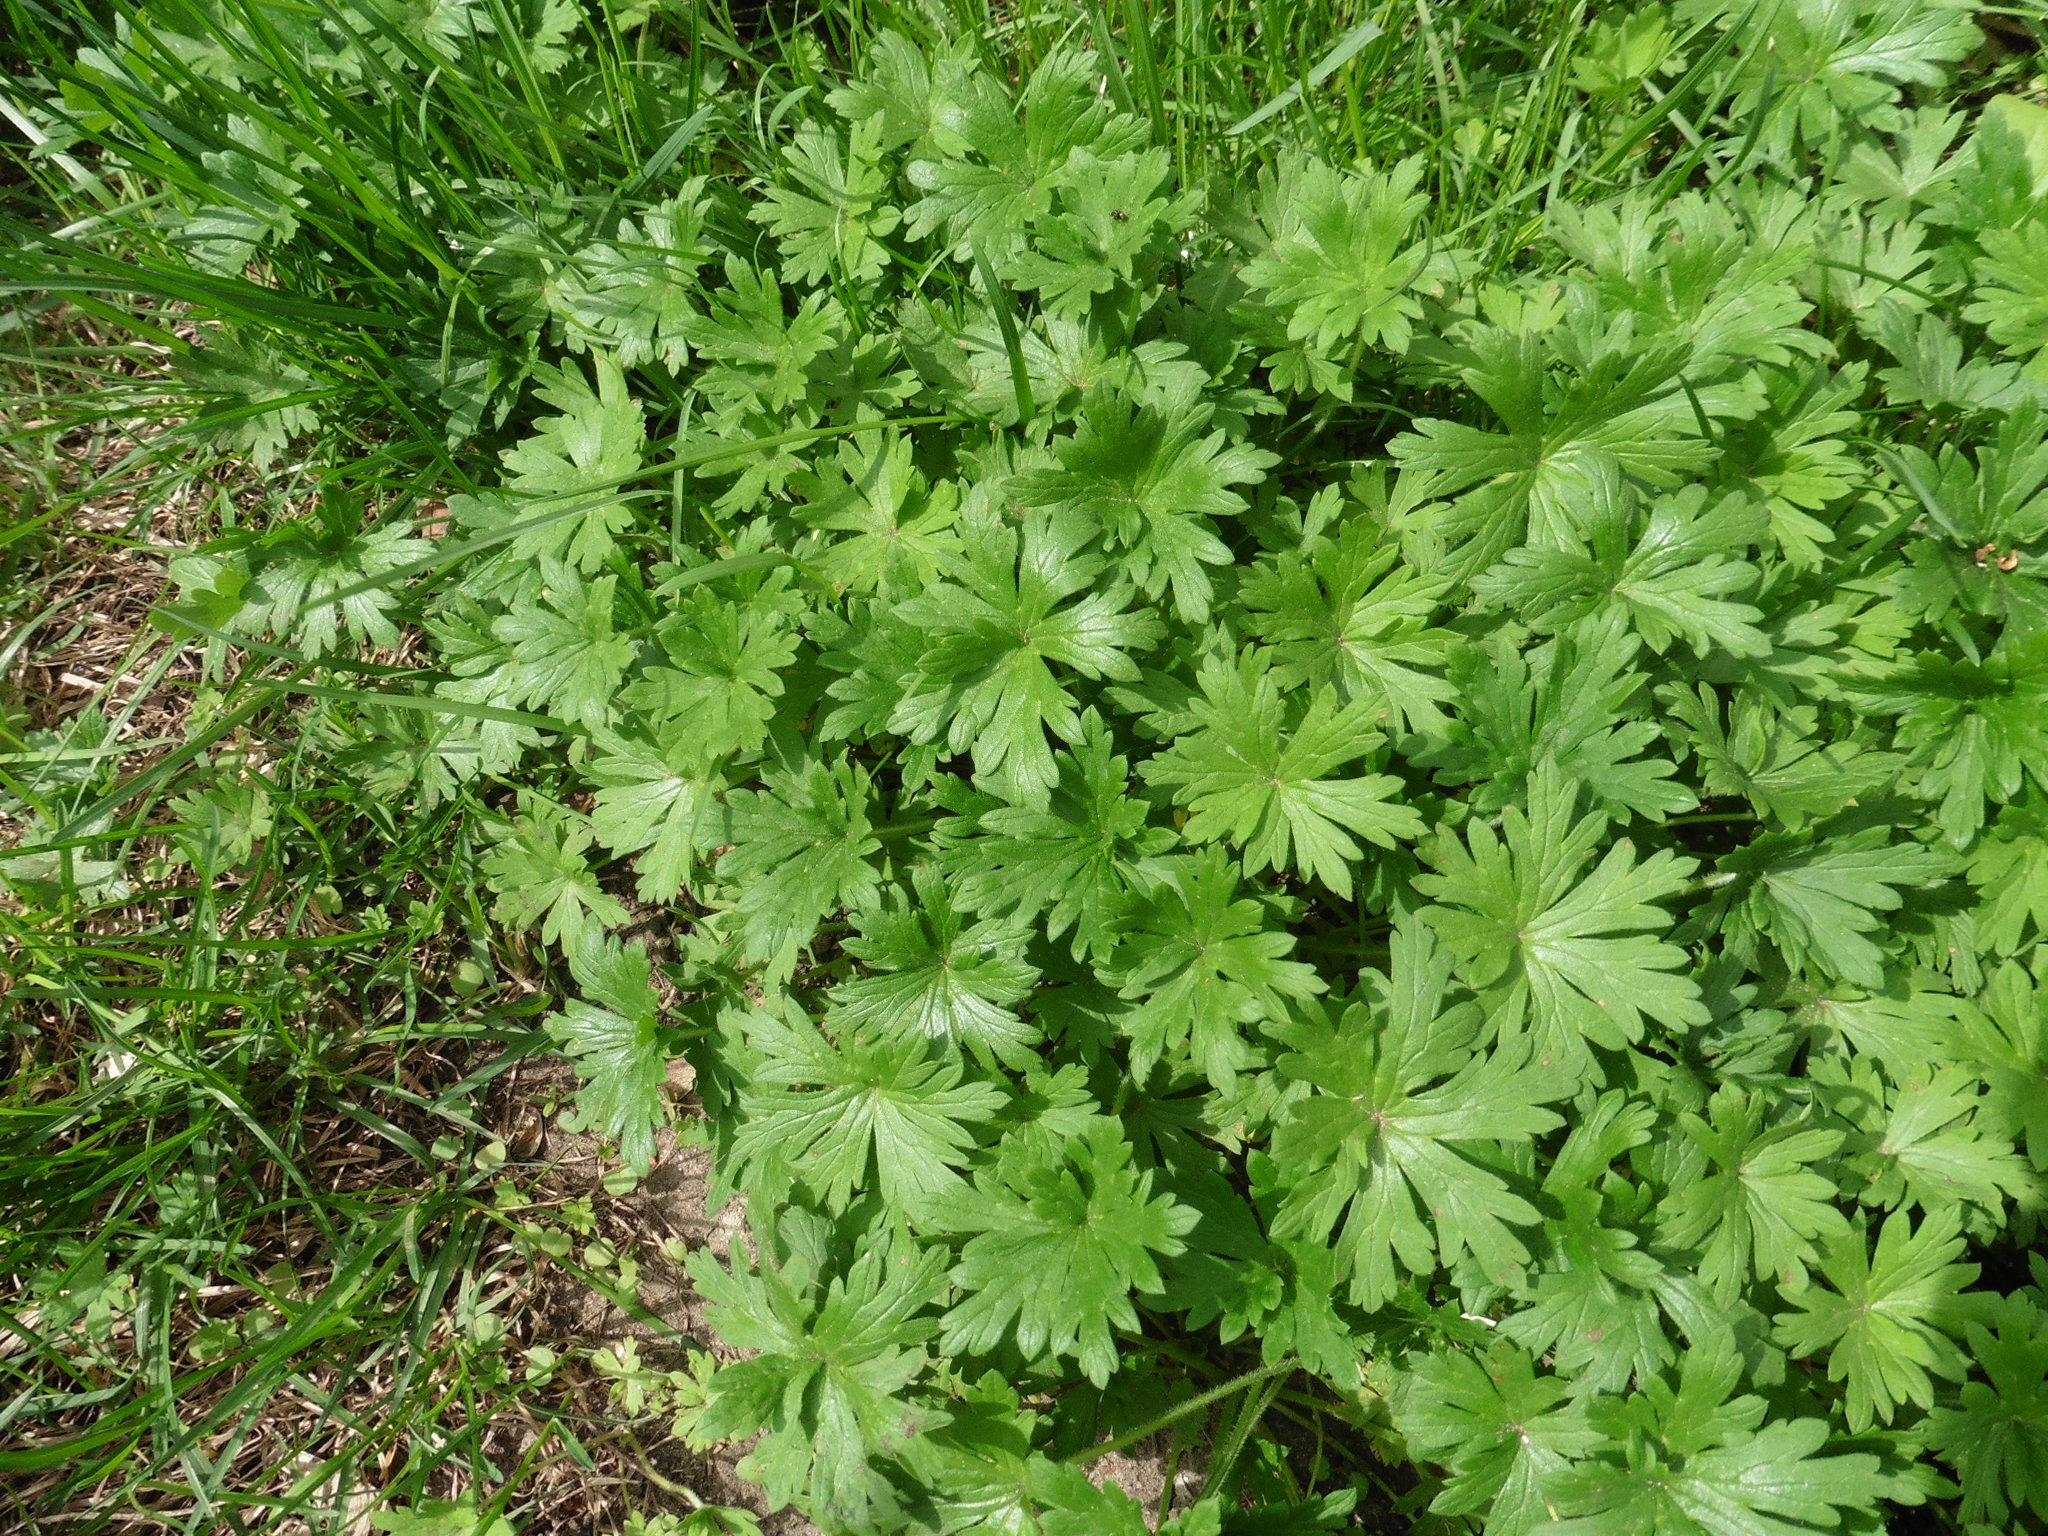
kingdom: Plantae
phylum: Tracheophyta
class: Magnoliopsida
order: Geraniales
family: Geraniaceae
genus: Geranium
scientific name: Geranium sibiricum
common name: Siberian crane's-bill
